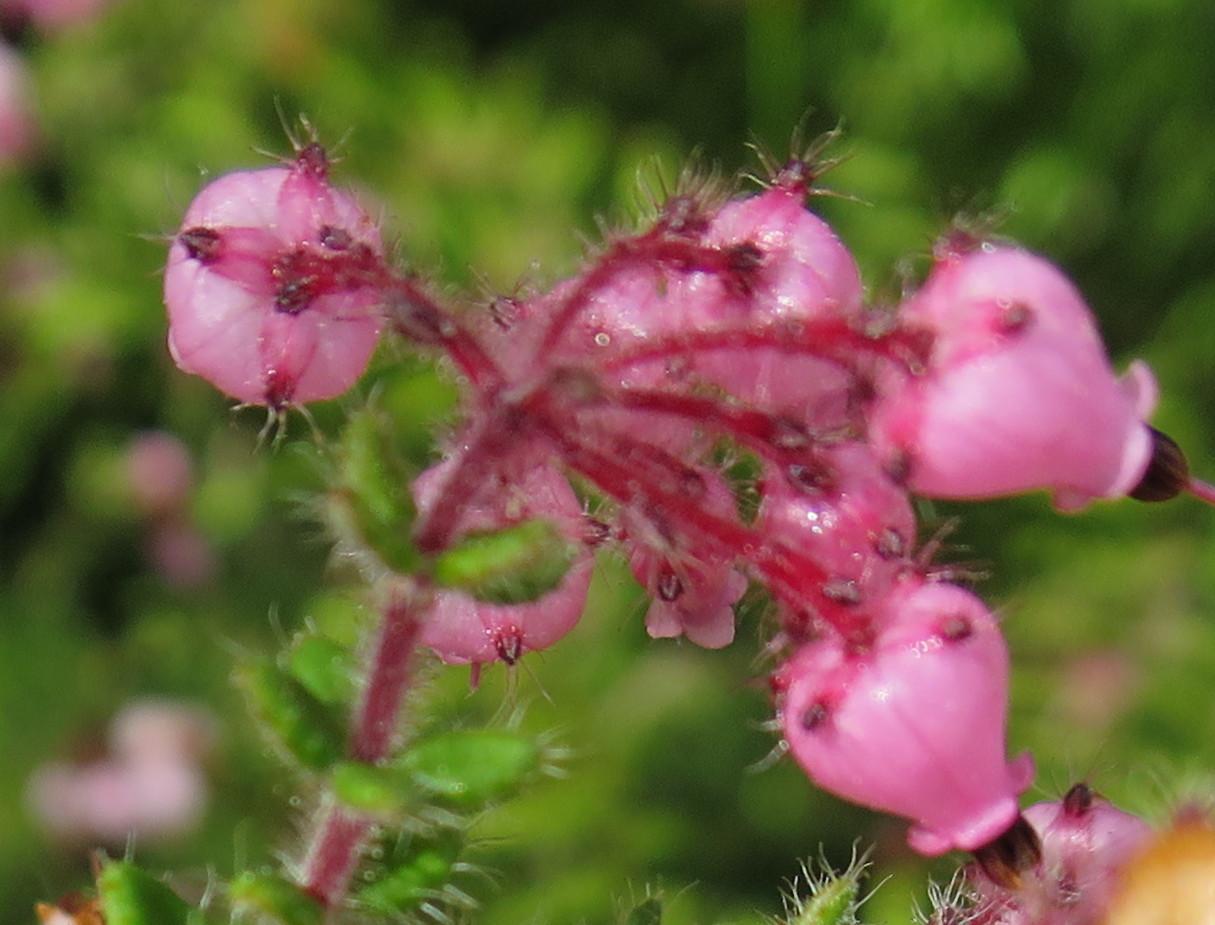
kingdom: Plantae
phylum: Tracheophyta
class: Magnoliopsida
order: Ericales
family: Ericaceae
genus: Erica
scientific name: Erica aneimena
